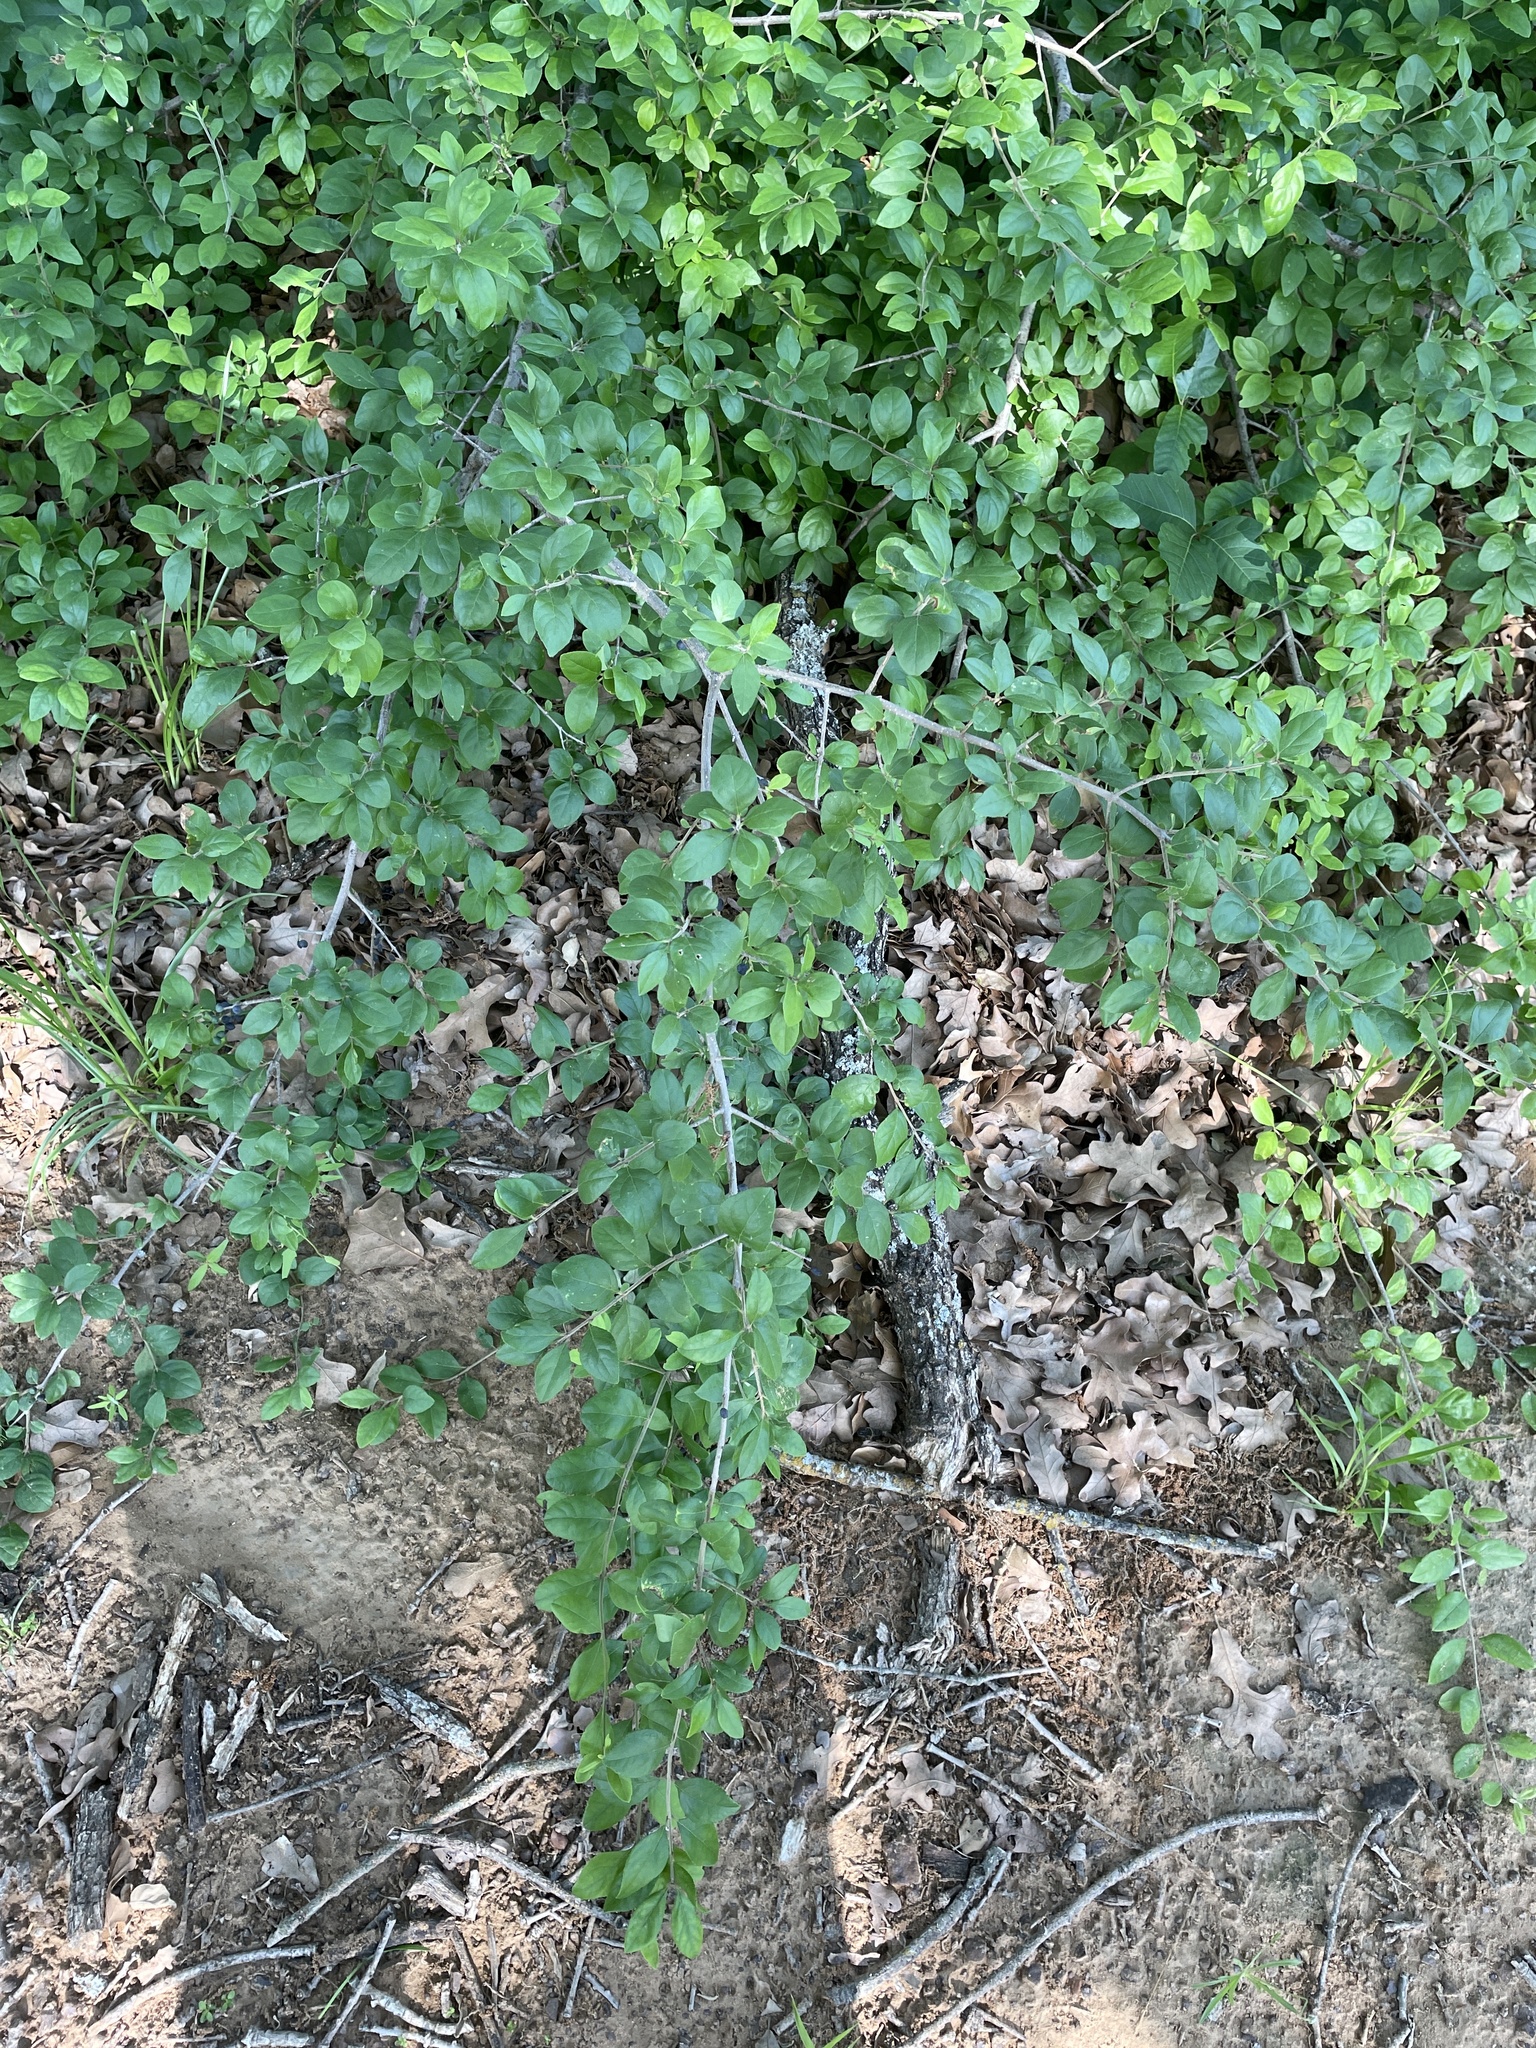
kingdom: Plantae
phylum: Tracheophyta
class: Magnoliopsida
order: Lamiales
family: Oleaceae
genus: Forestiera
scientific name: Forestiera pubescens
